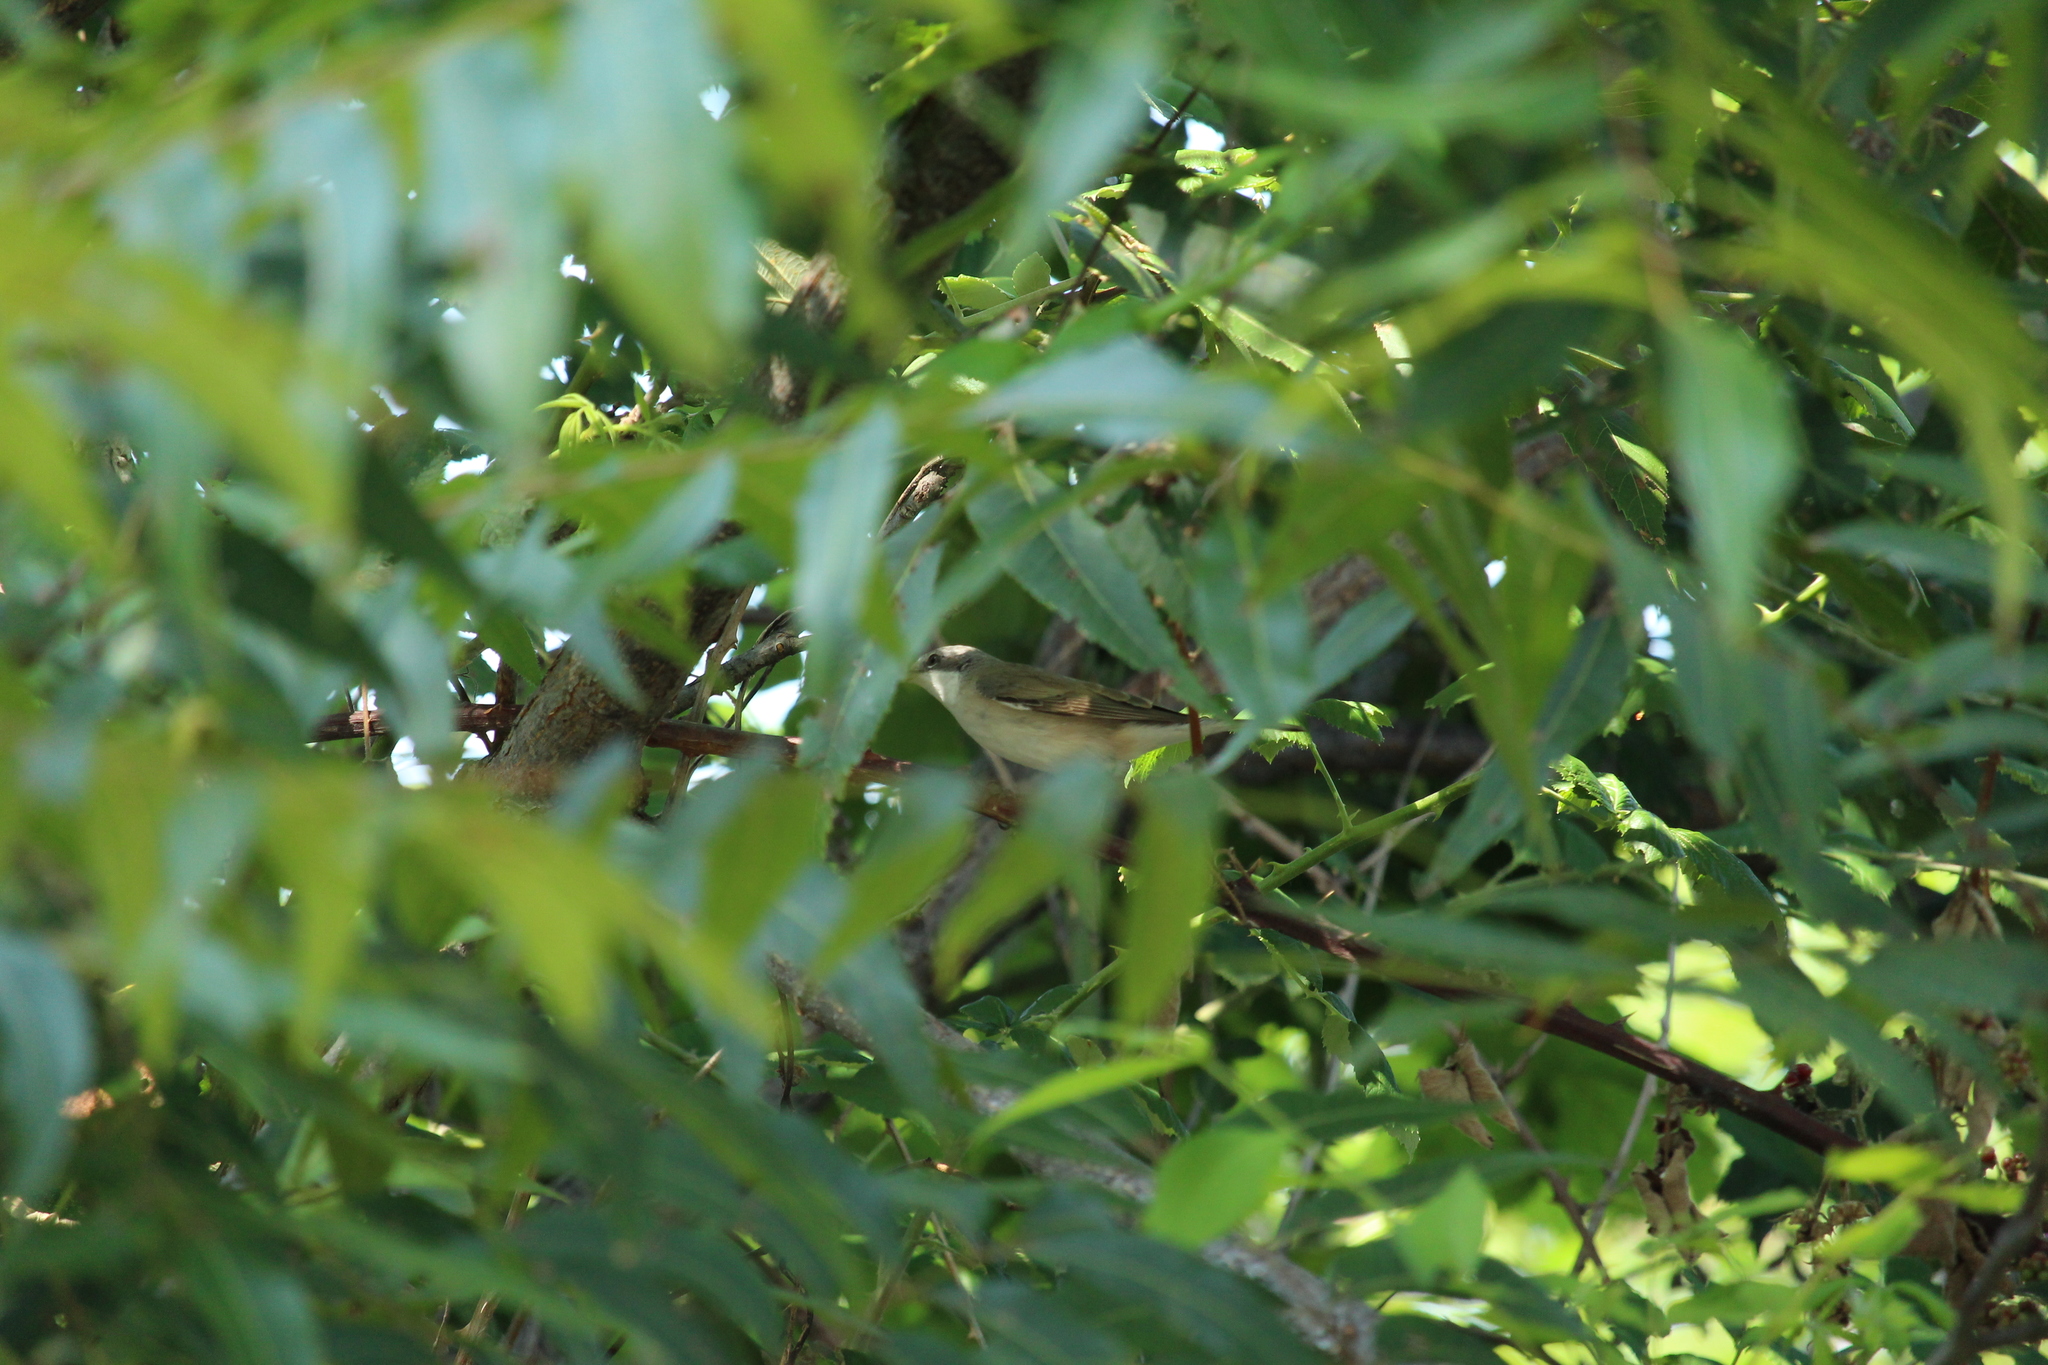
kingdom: Animalia
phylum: Chordata
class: Aves
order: Passeriformes
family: Sylviidae
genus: Sylvia
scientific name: Sylvia curruca
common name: Lesser whitethroat
